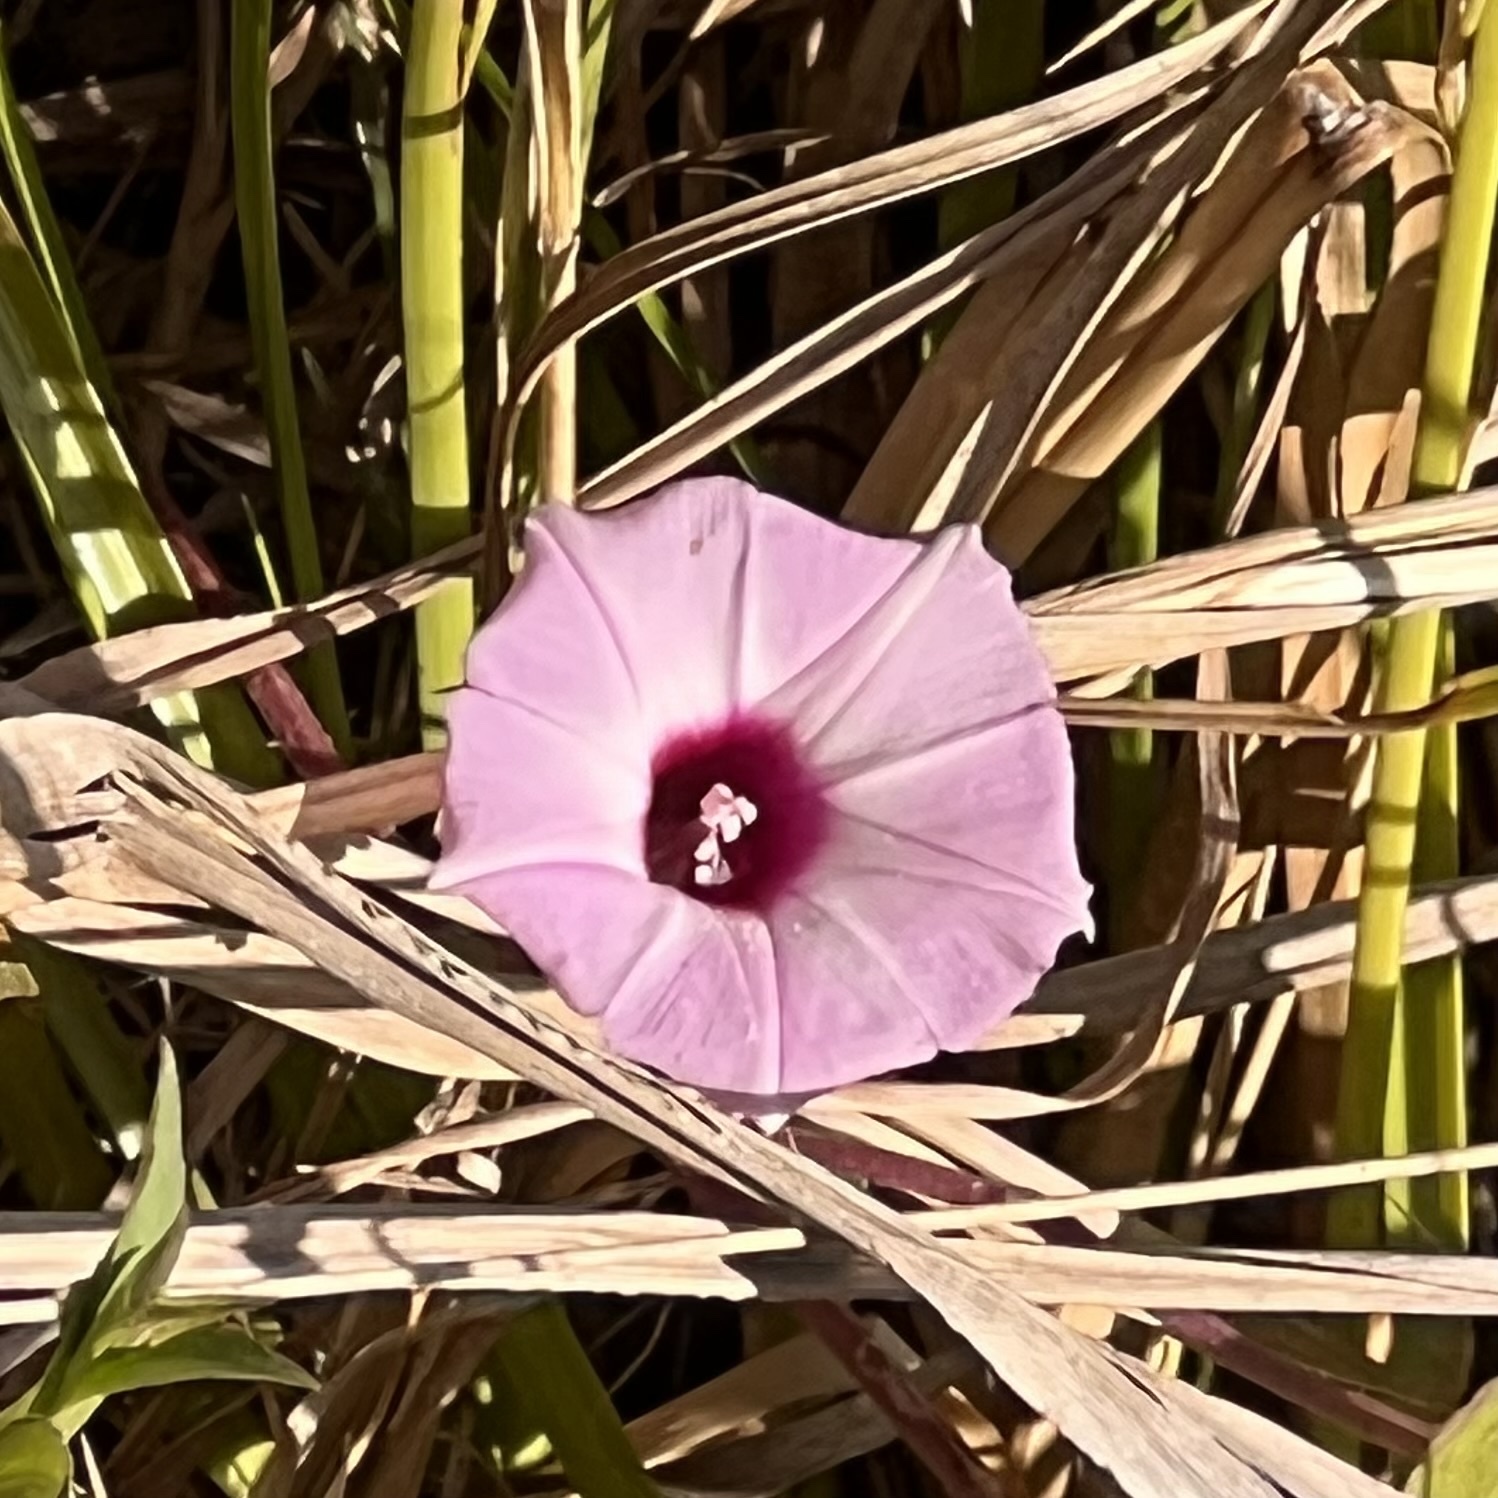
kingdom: Plantae
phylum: Tracheophyta
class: Magnoliopsida
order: Solanales
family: Convolvulaceae
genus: Ipomoea
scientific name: Ipomoea cordatotriloba
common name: Cotton morning glory
